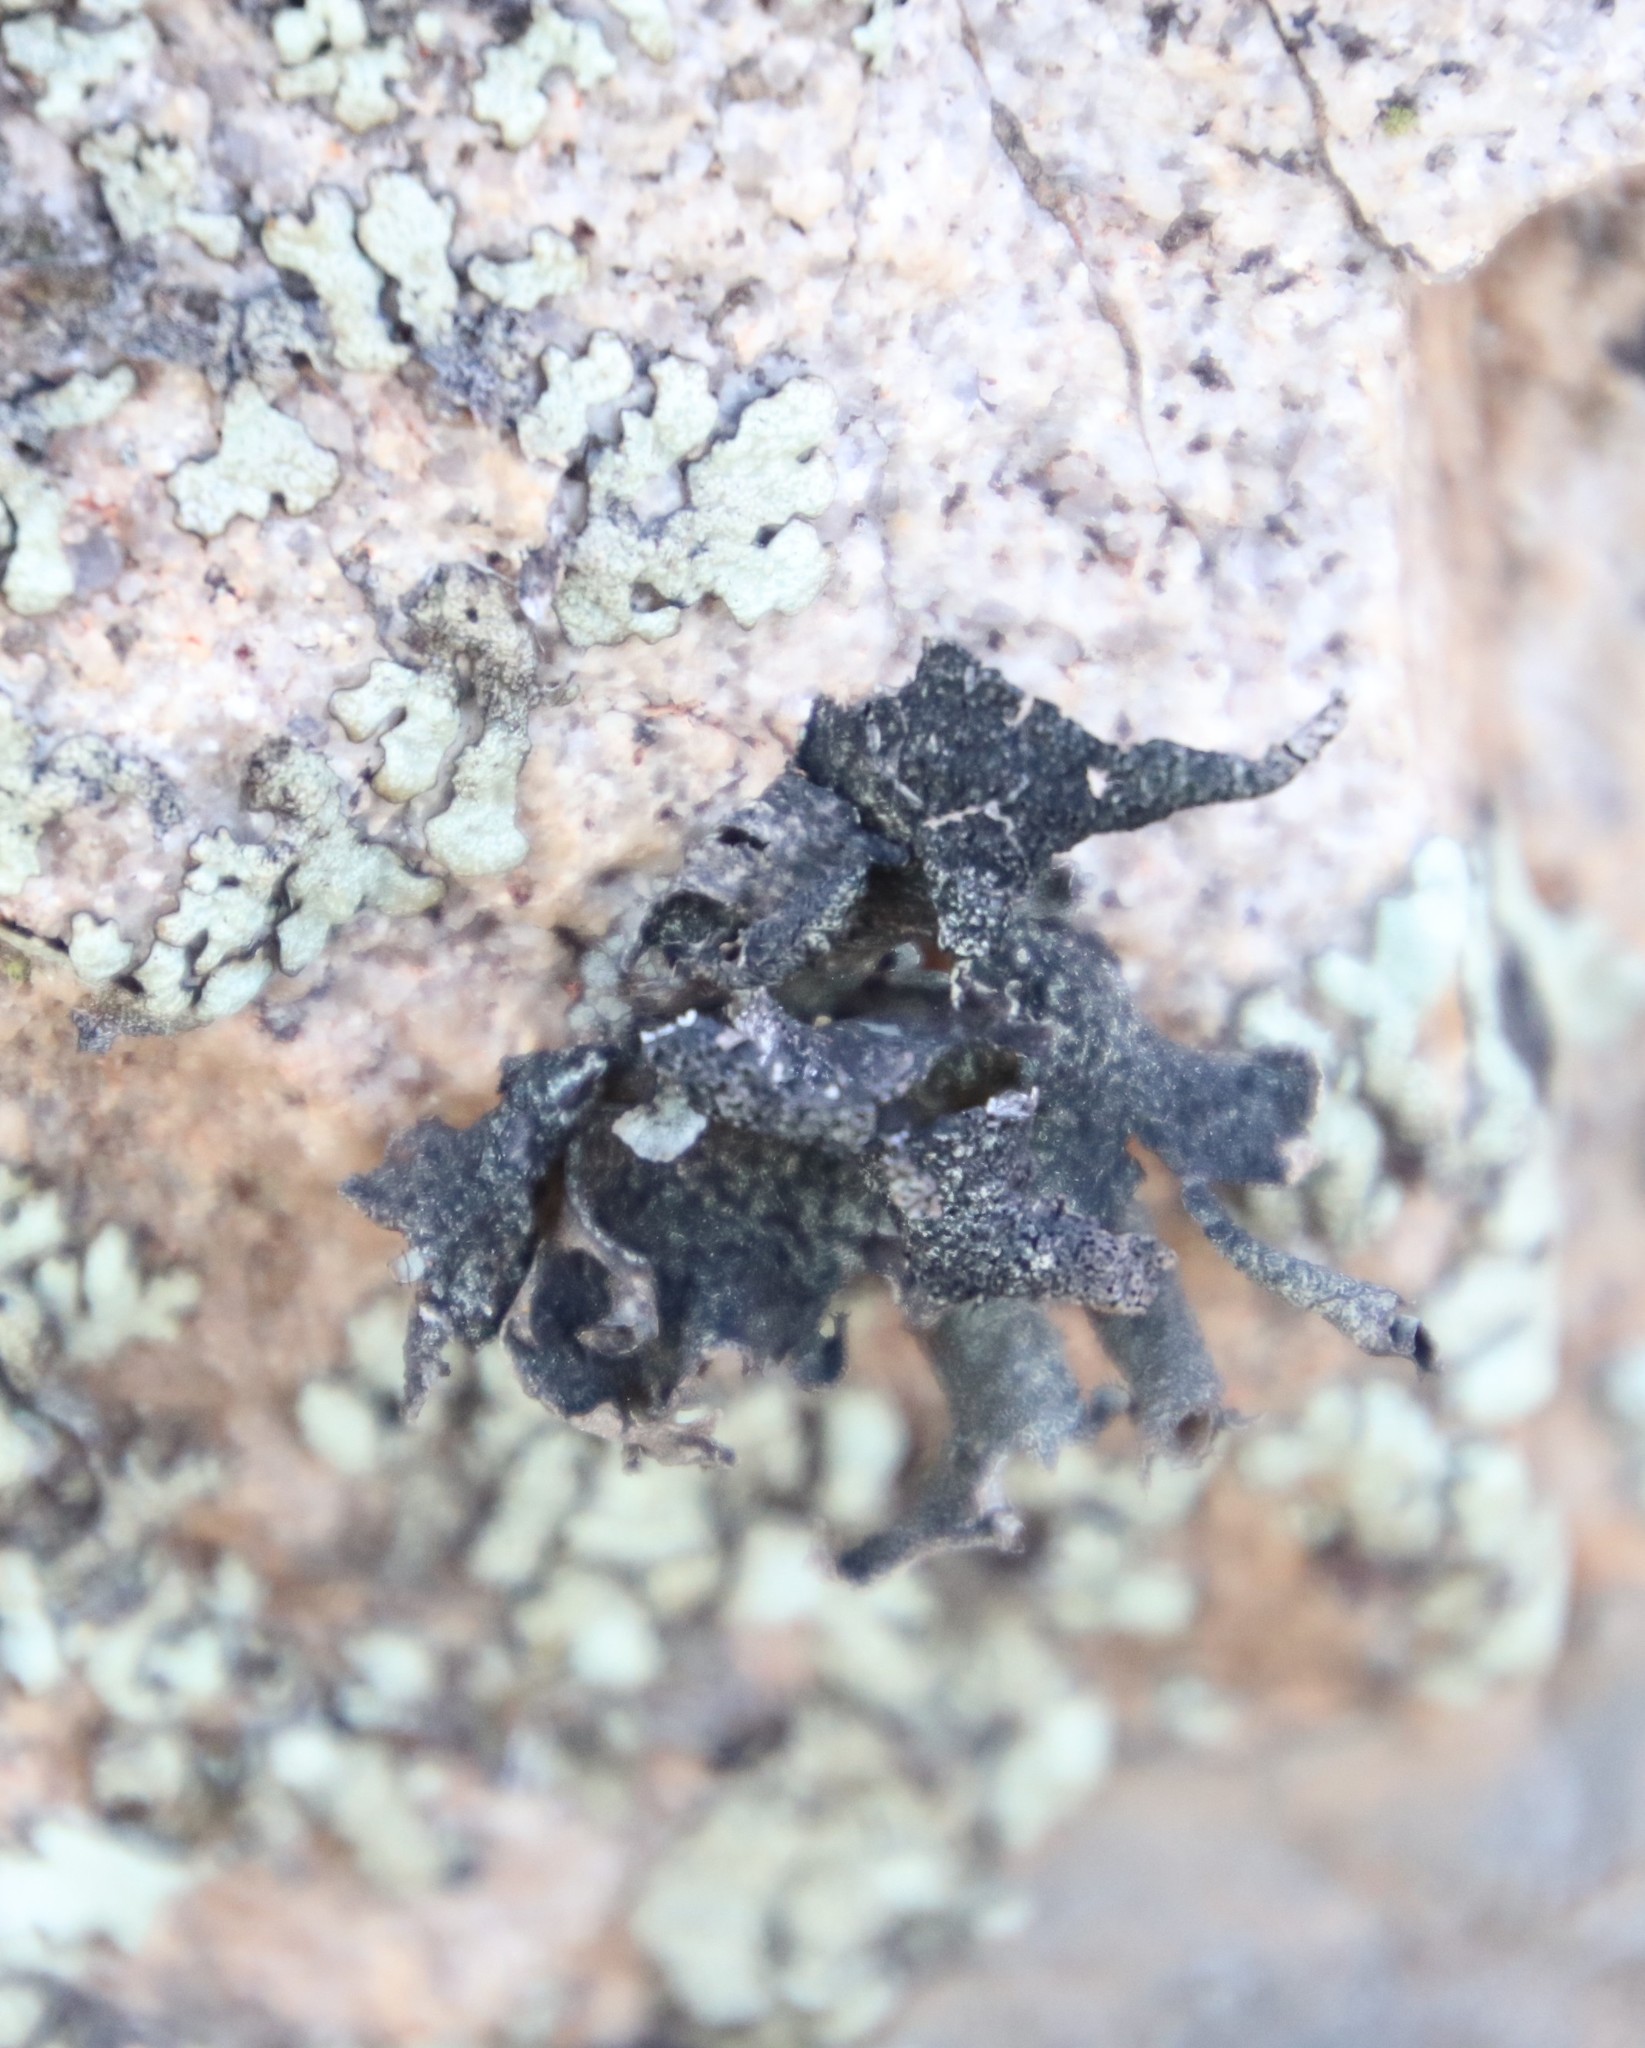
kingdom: Fungi
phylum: Ascomycota
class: Lecanoromycetes
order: Lecanorales
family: Parmeliaceae
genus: Xanthoparmelia
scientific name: Xanthoparmelia hottentotta
